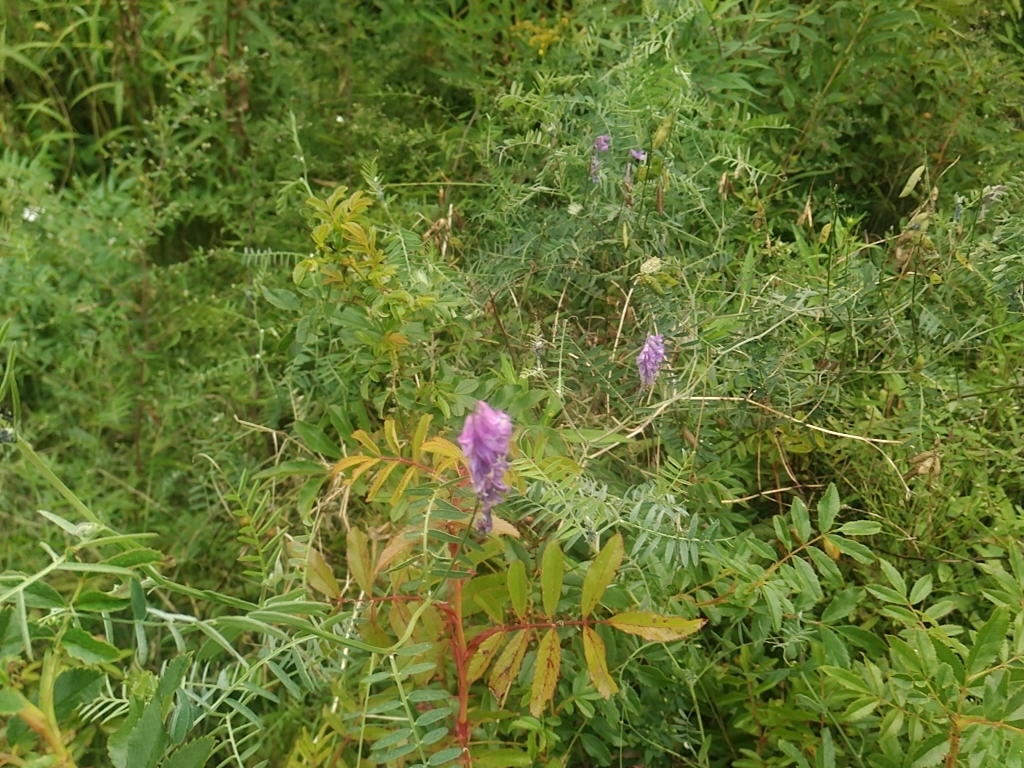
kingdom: Plantae
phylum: Tracheophyta
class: Magnoliopsida
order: Fabales
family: Fabaceae
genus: Vicia
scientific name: Vicia cracca
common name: Bird vetch
